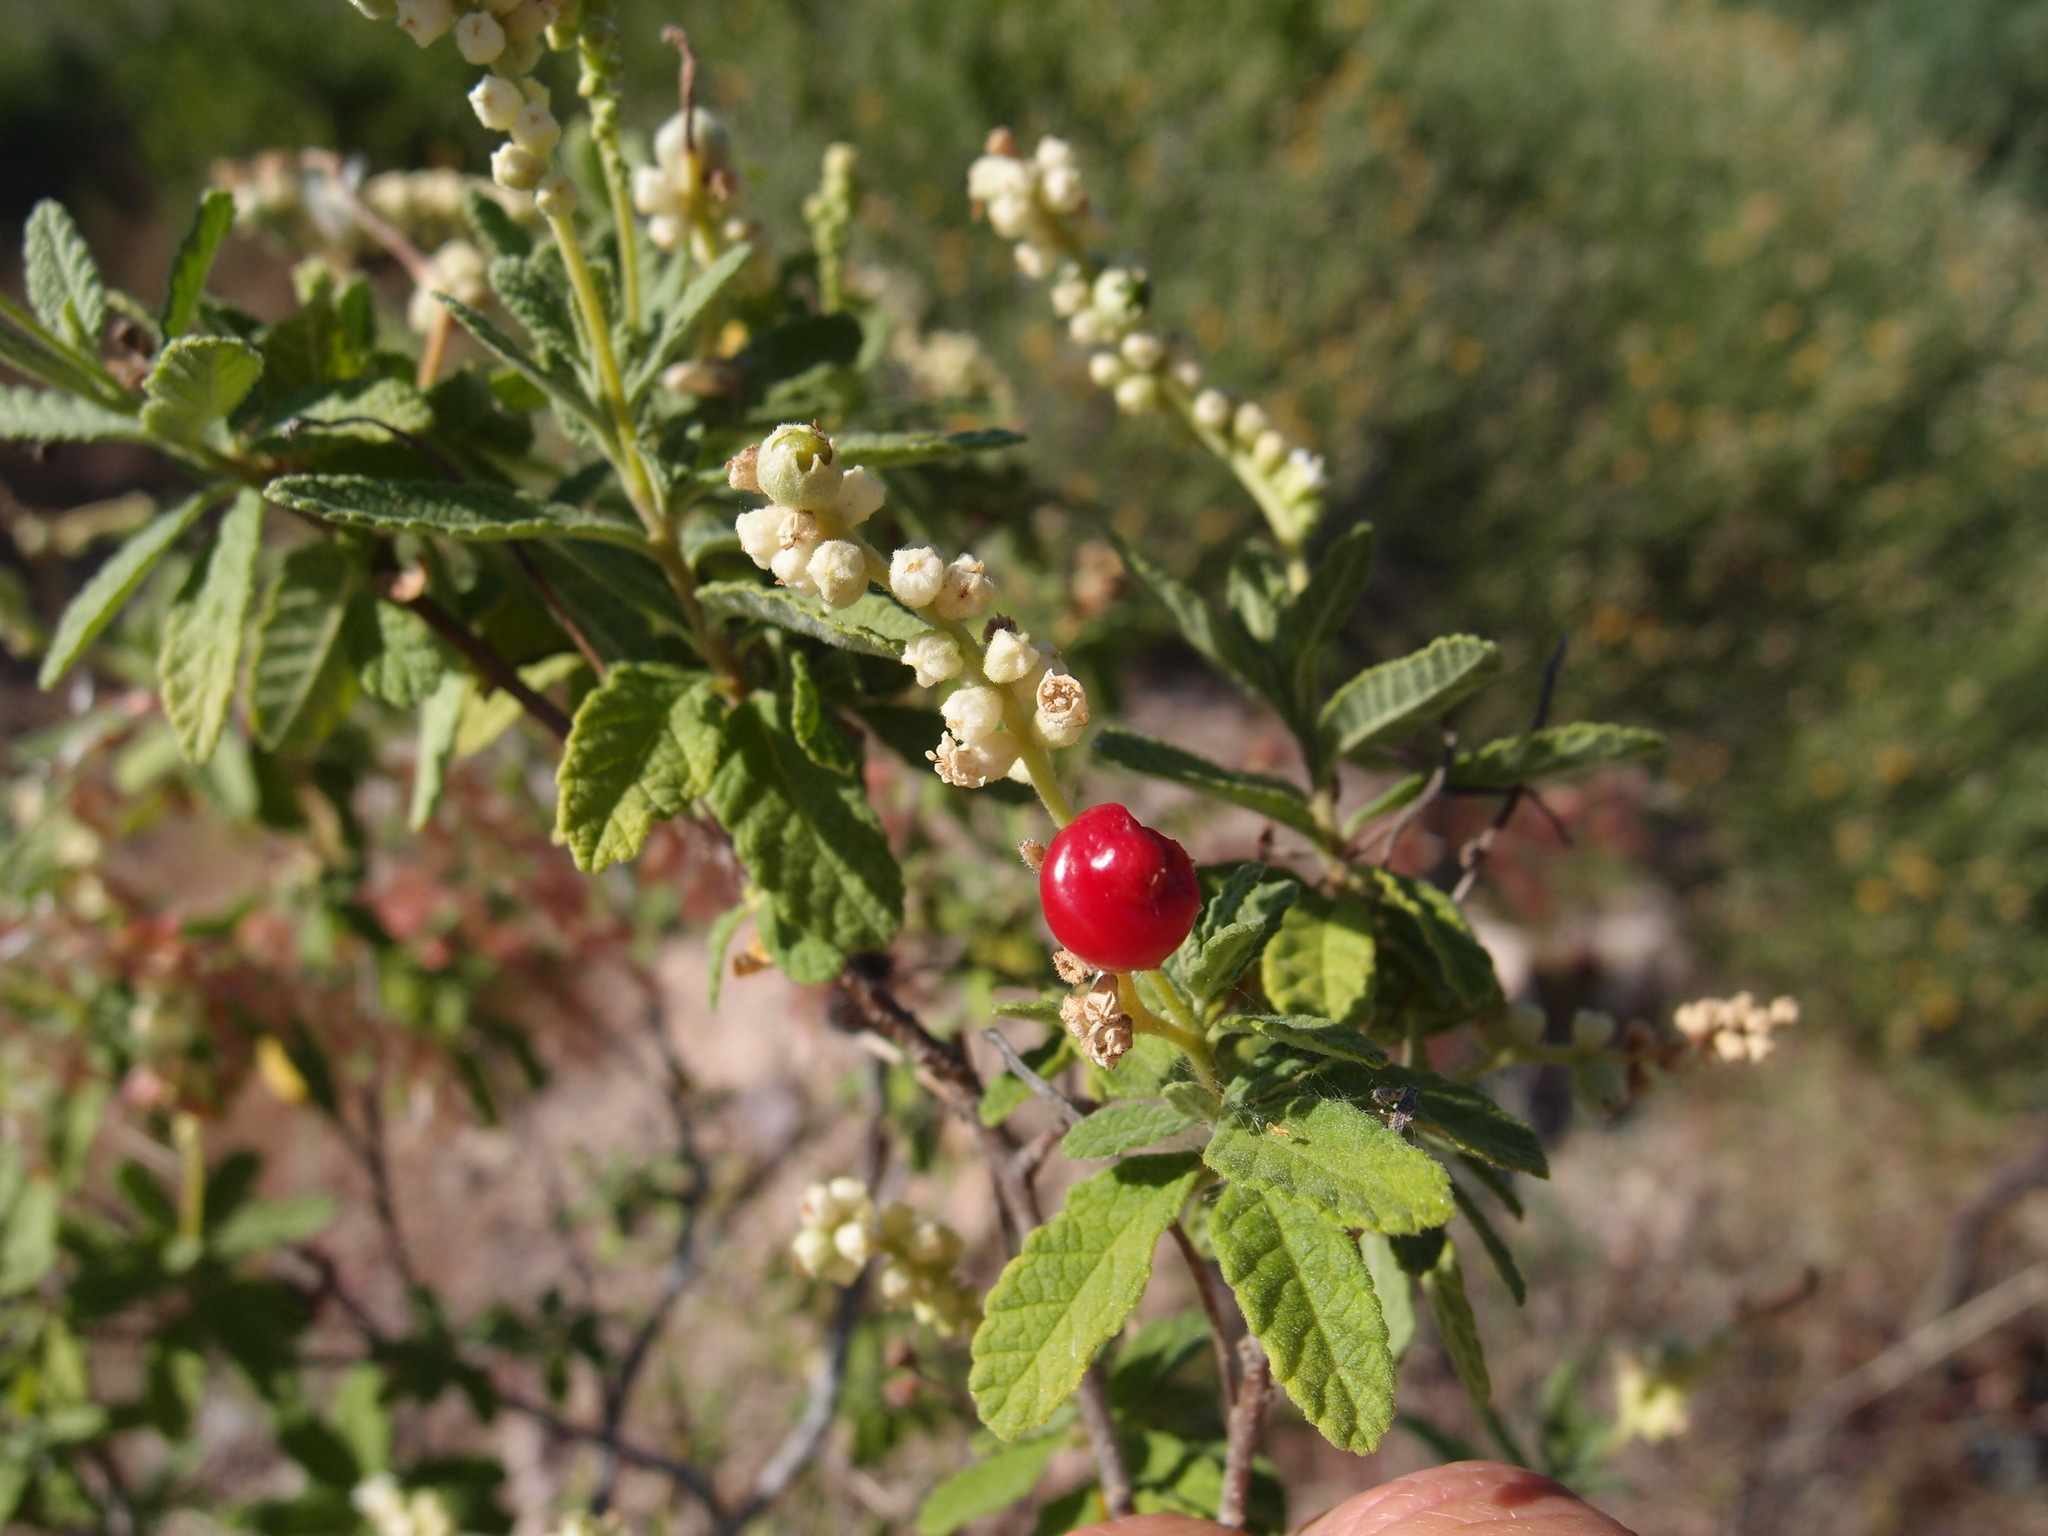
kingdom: Plantae
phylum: Tracheophyta
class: Magnoliopsida
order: Boraginales
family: Cordiaceae
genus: Varronia
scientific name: Varronia curassavica
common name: Black sage
